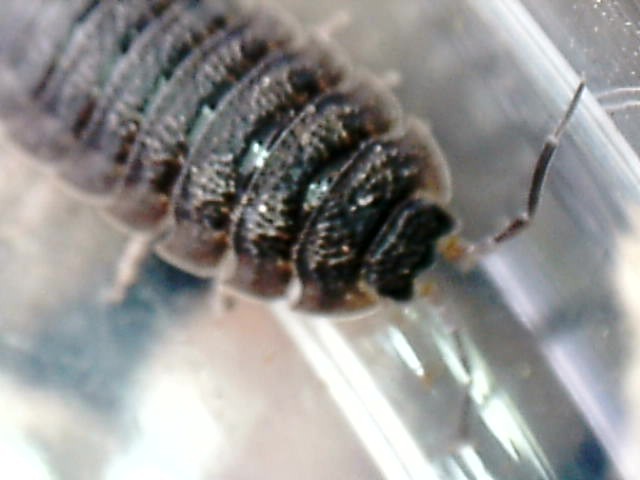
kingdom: Animalia
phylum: Arthropoda
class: Malacostraca
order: Isopoda
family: Porcellionidae
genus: Porcellio
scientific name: Porcellio scaber
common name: Common rough woodlouse
